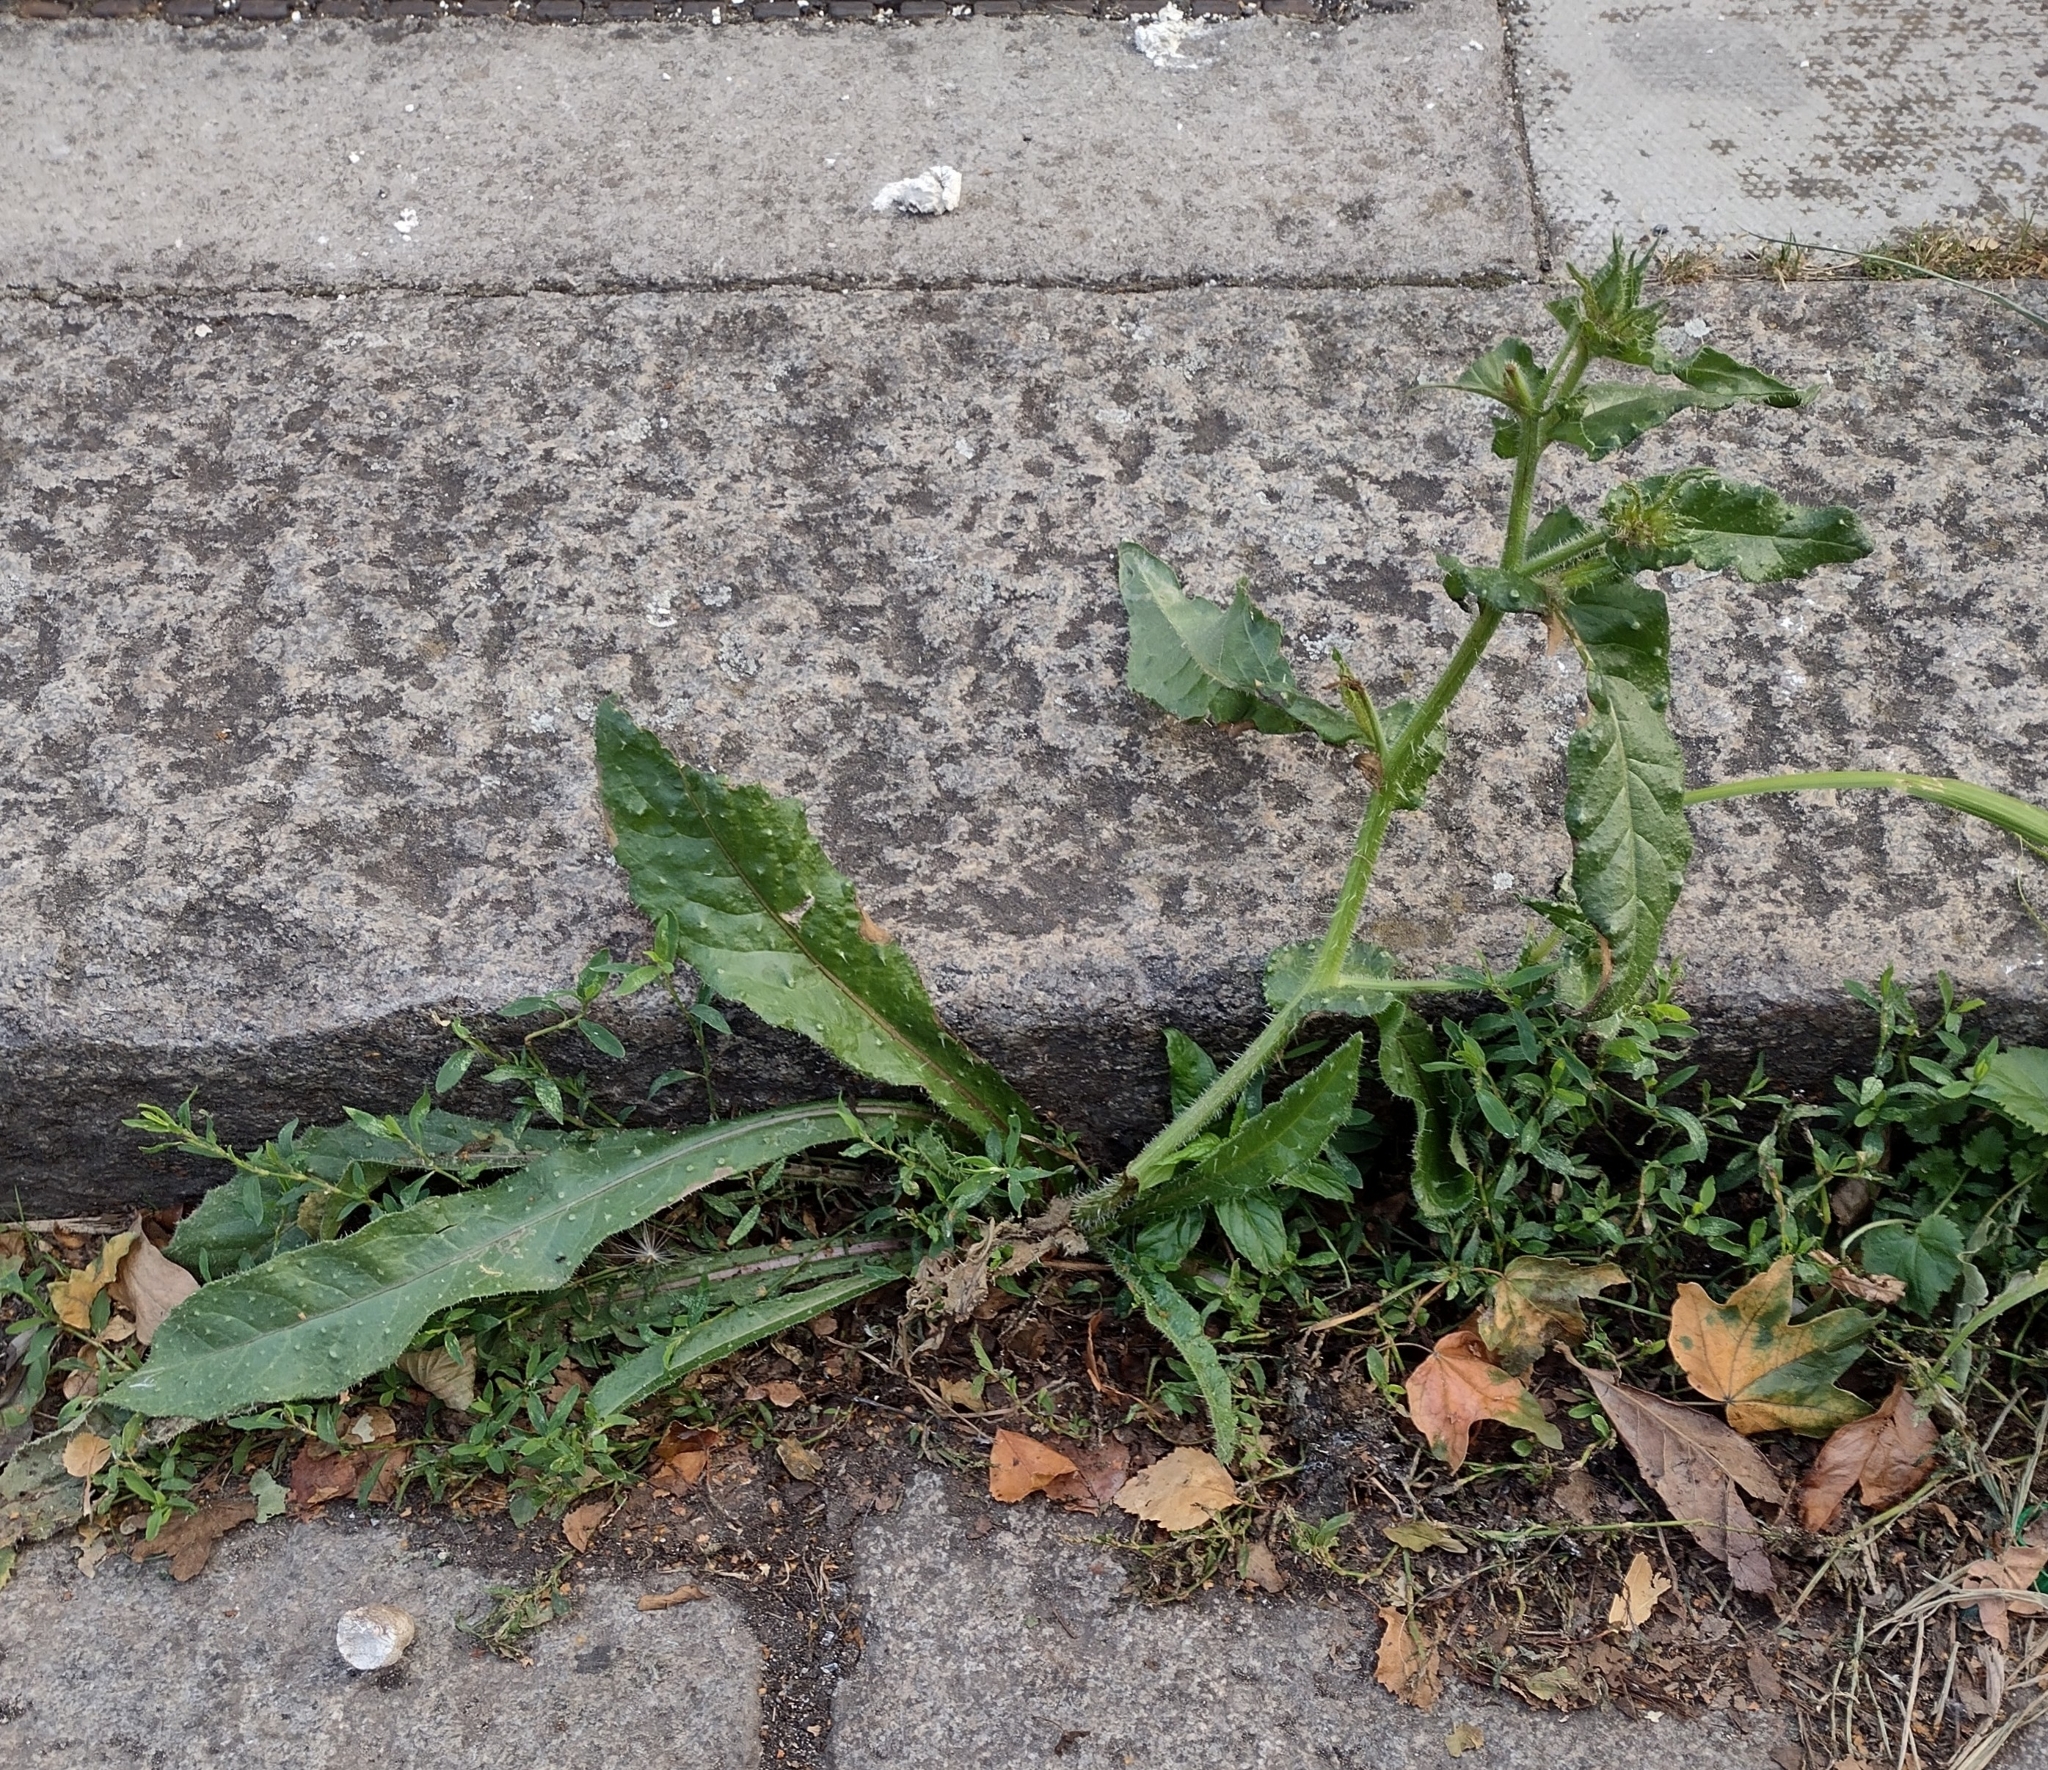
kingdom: Plantae
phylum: Tracheophyta
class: Magnoliopsida
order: Asterales
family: Asteraceae
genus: Helminthotheca
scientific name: Helminthotheca echioides
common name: Ox-tongue
